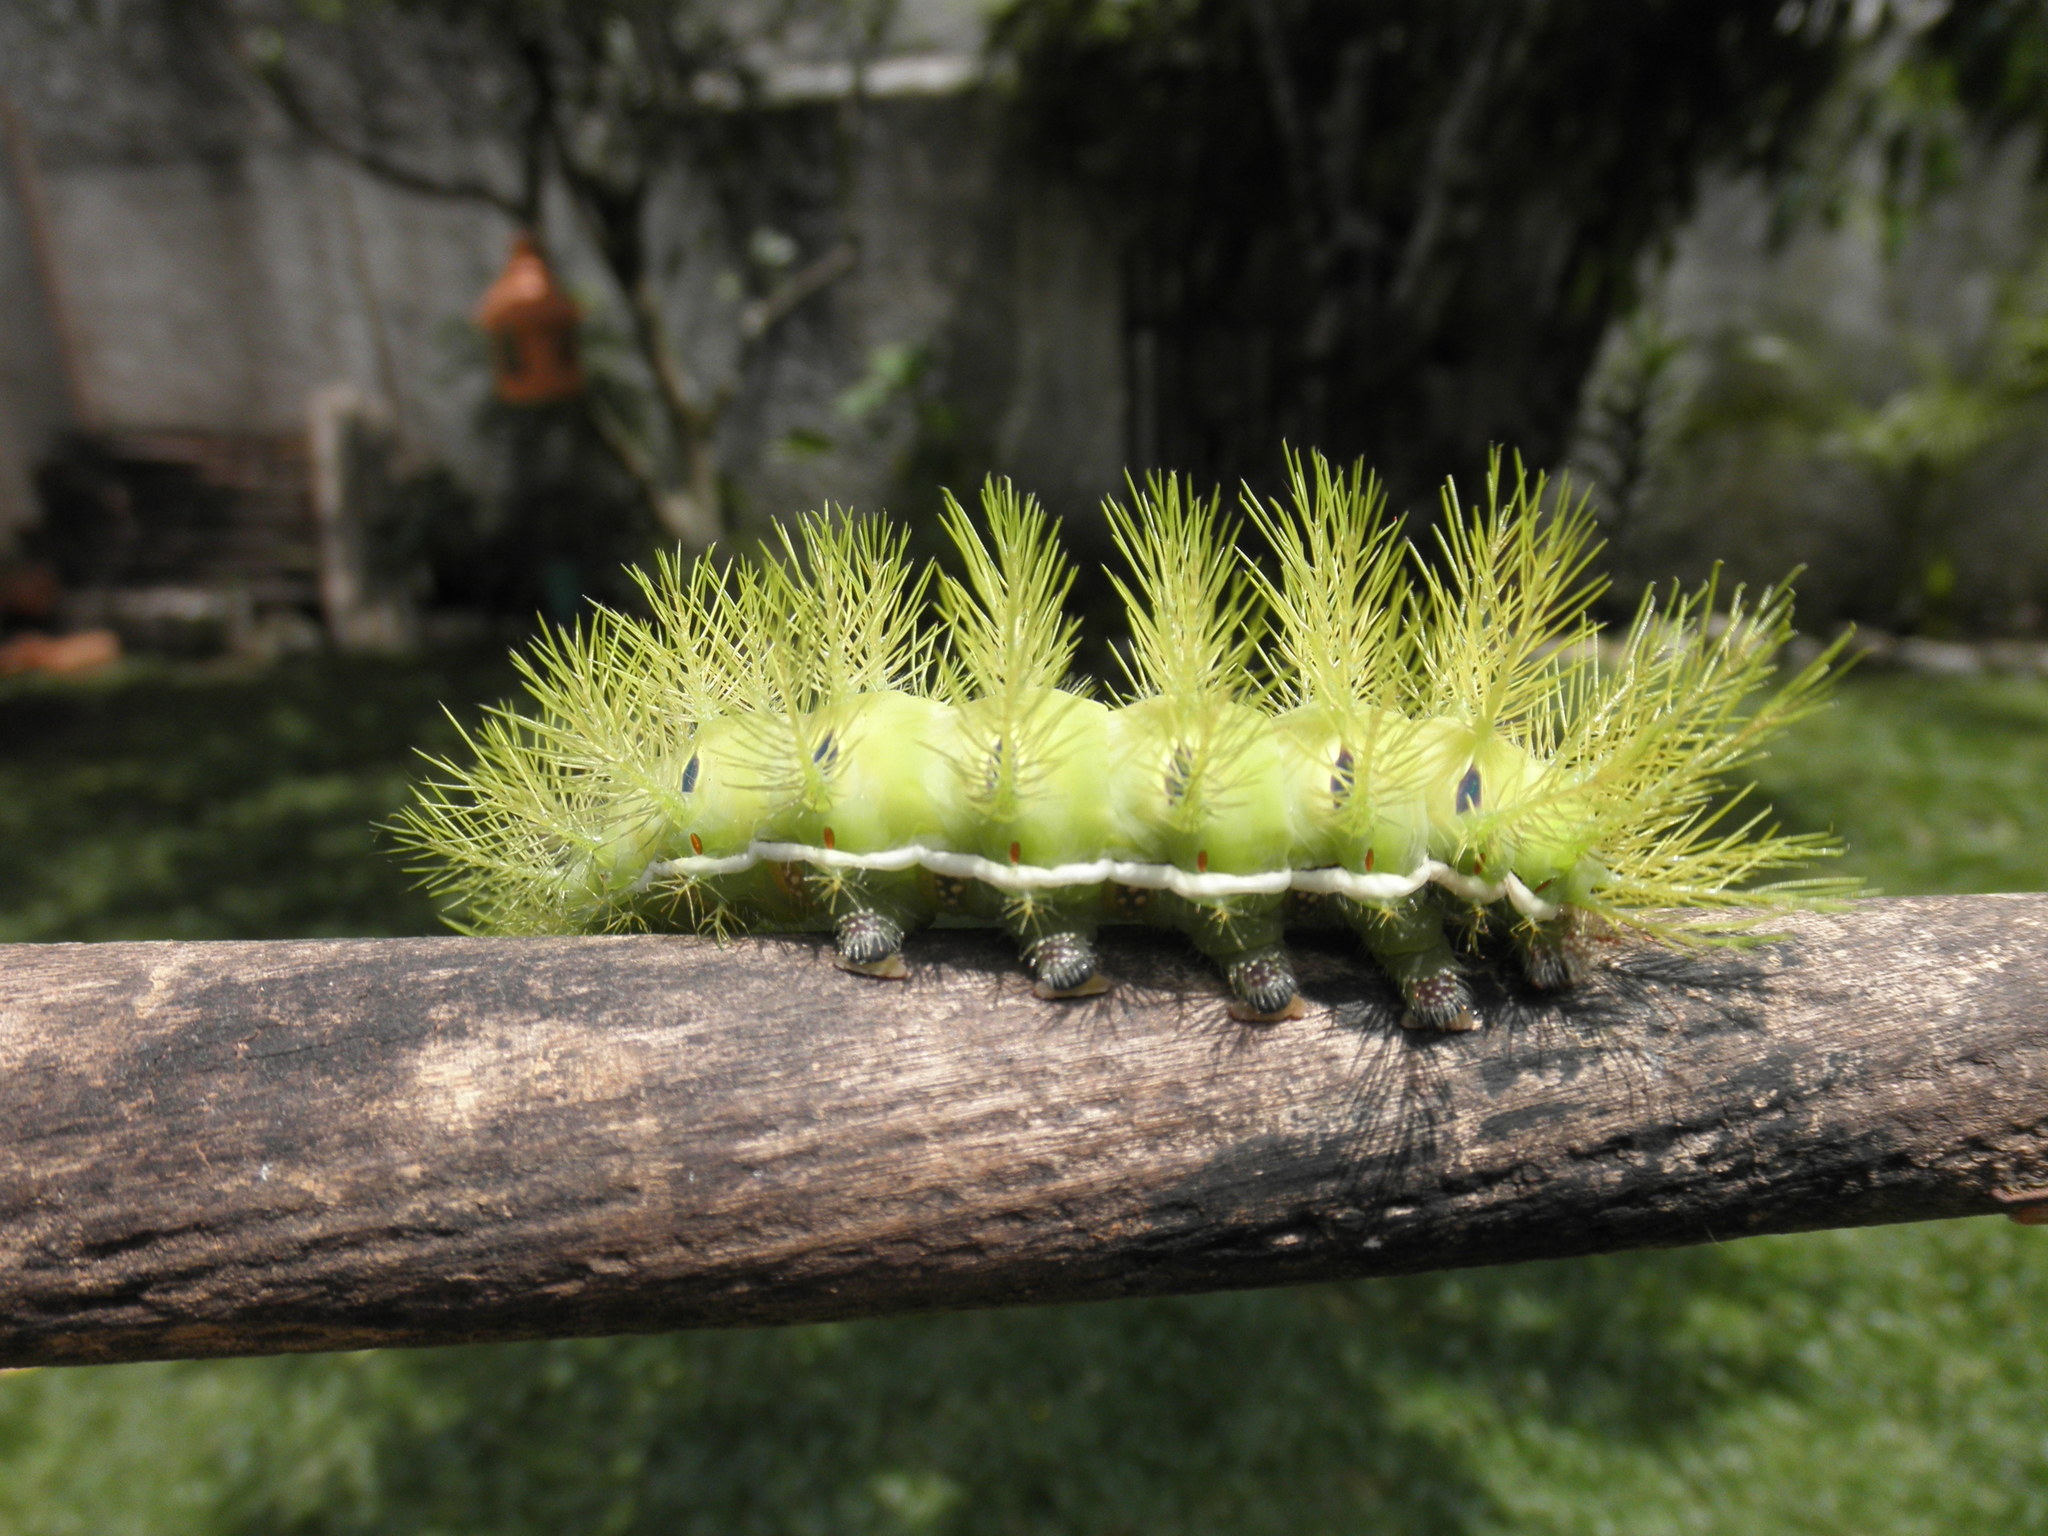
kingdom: Animalia
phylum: Arthropoda
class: Insecta
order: Lepidoptera
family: Saturniidae
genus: Automeris
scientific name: Automeris illustris
